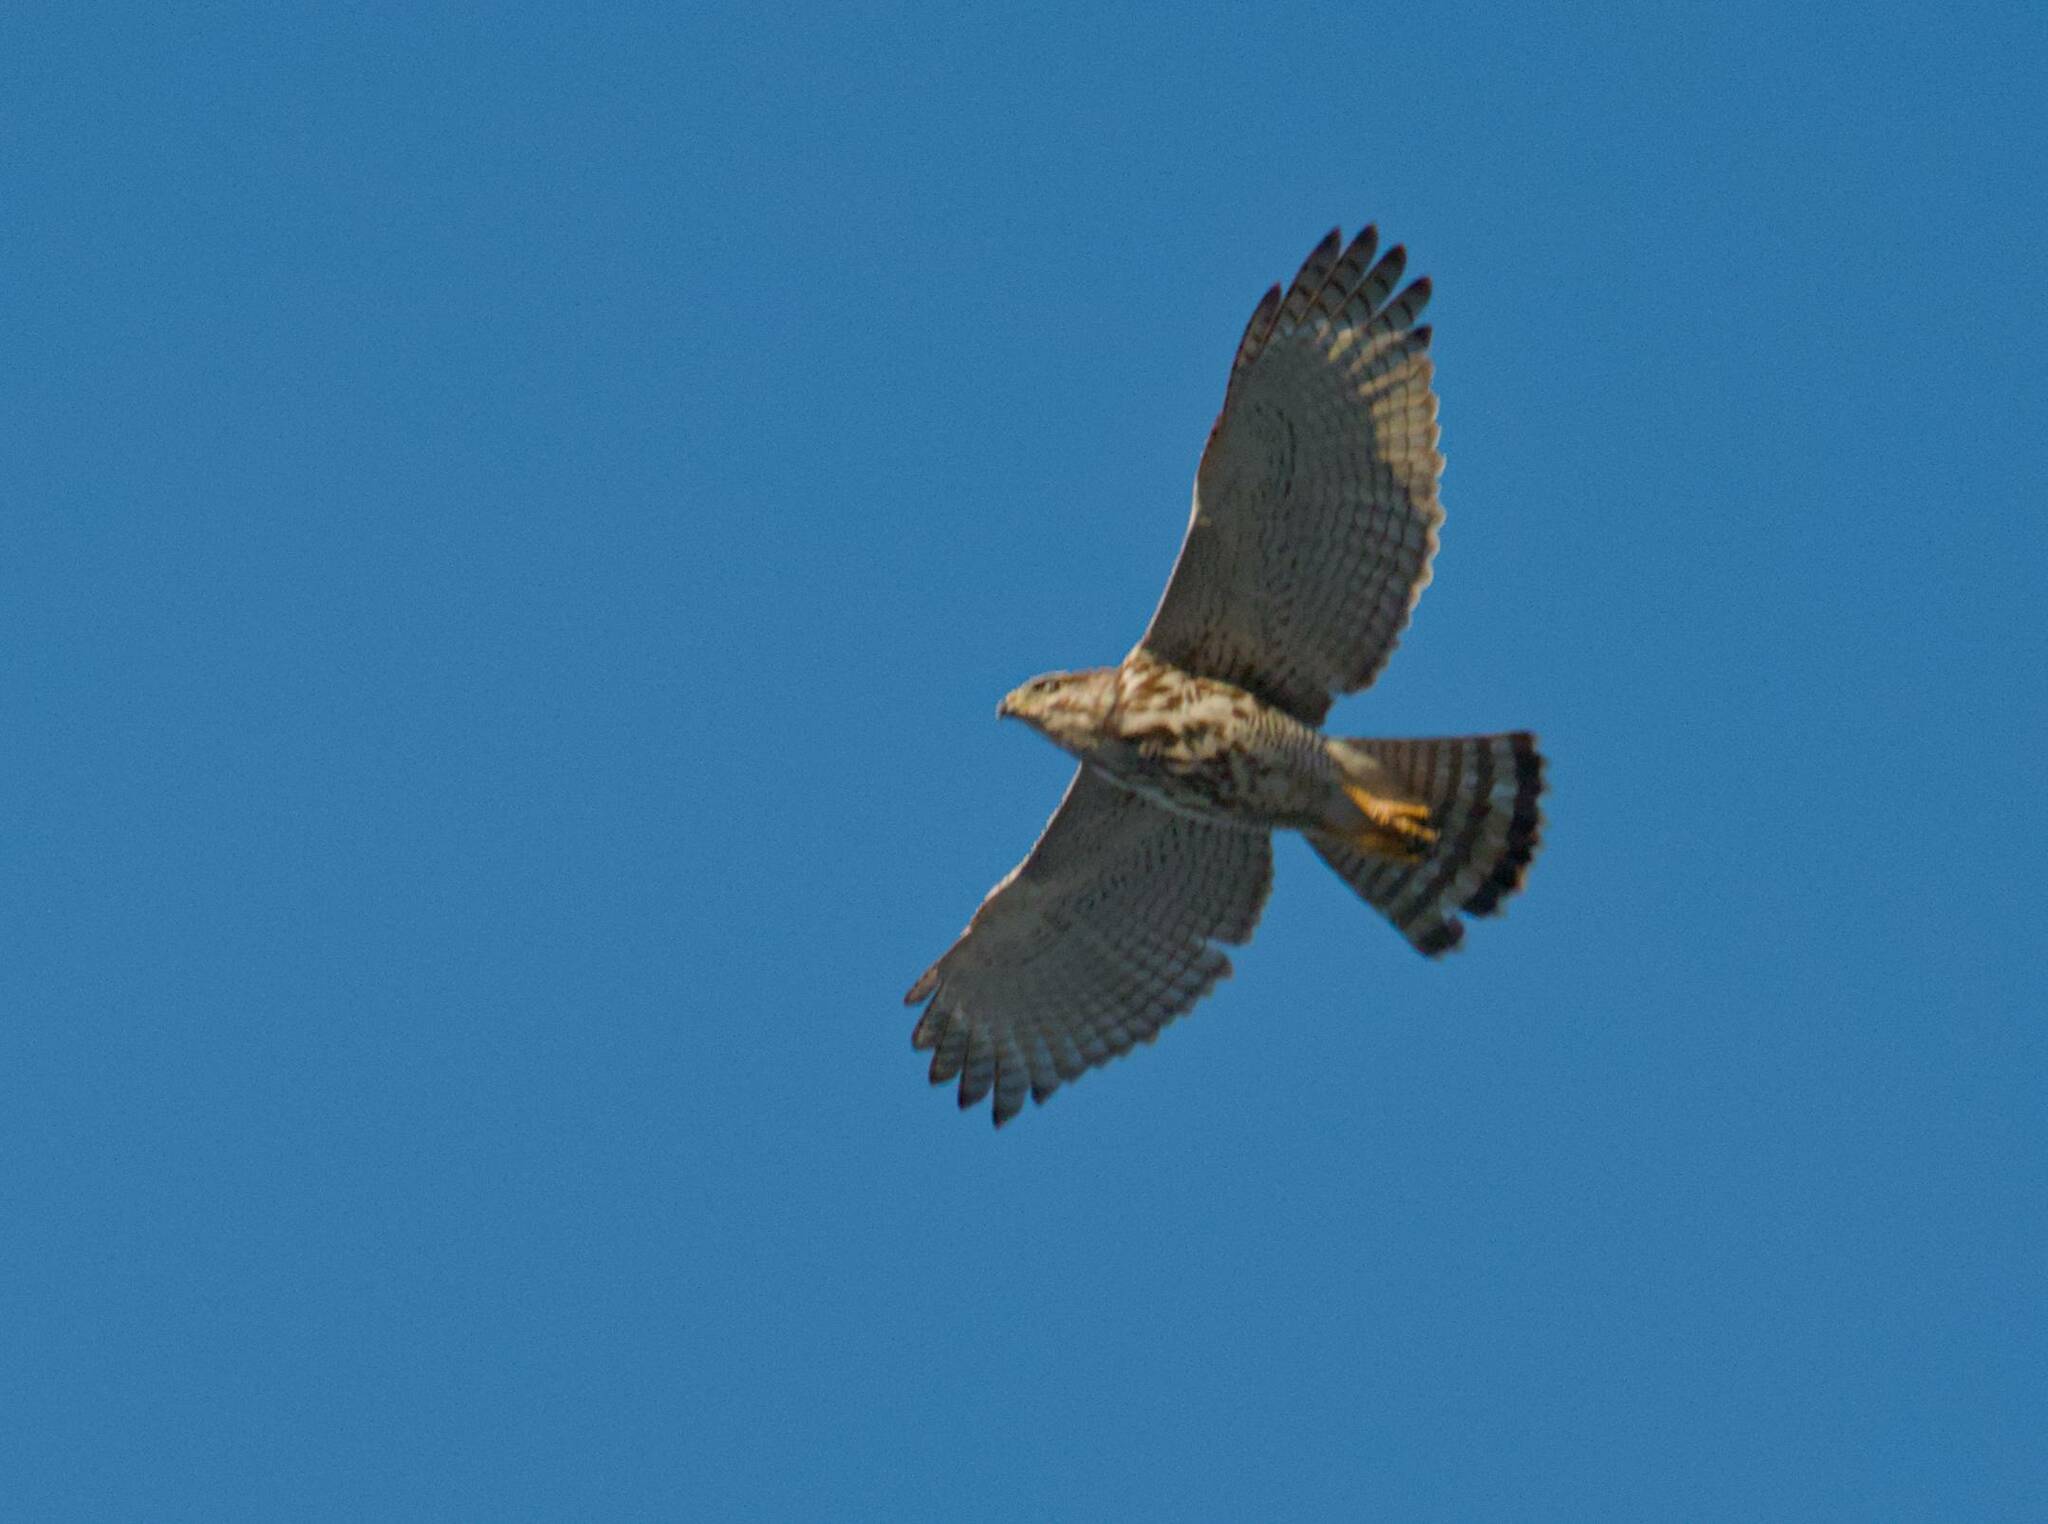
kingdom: Animalia
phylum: Chordata
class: Aves
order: Accipitriformes
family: Accipitridae
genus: Buteo
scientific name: Buteo nitidus
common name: Grey-lined hawk
